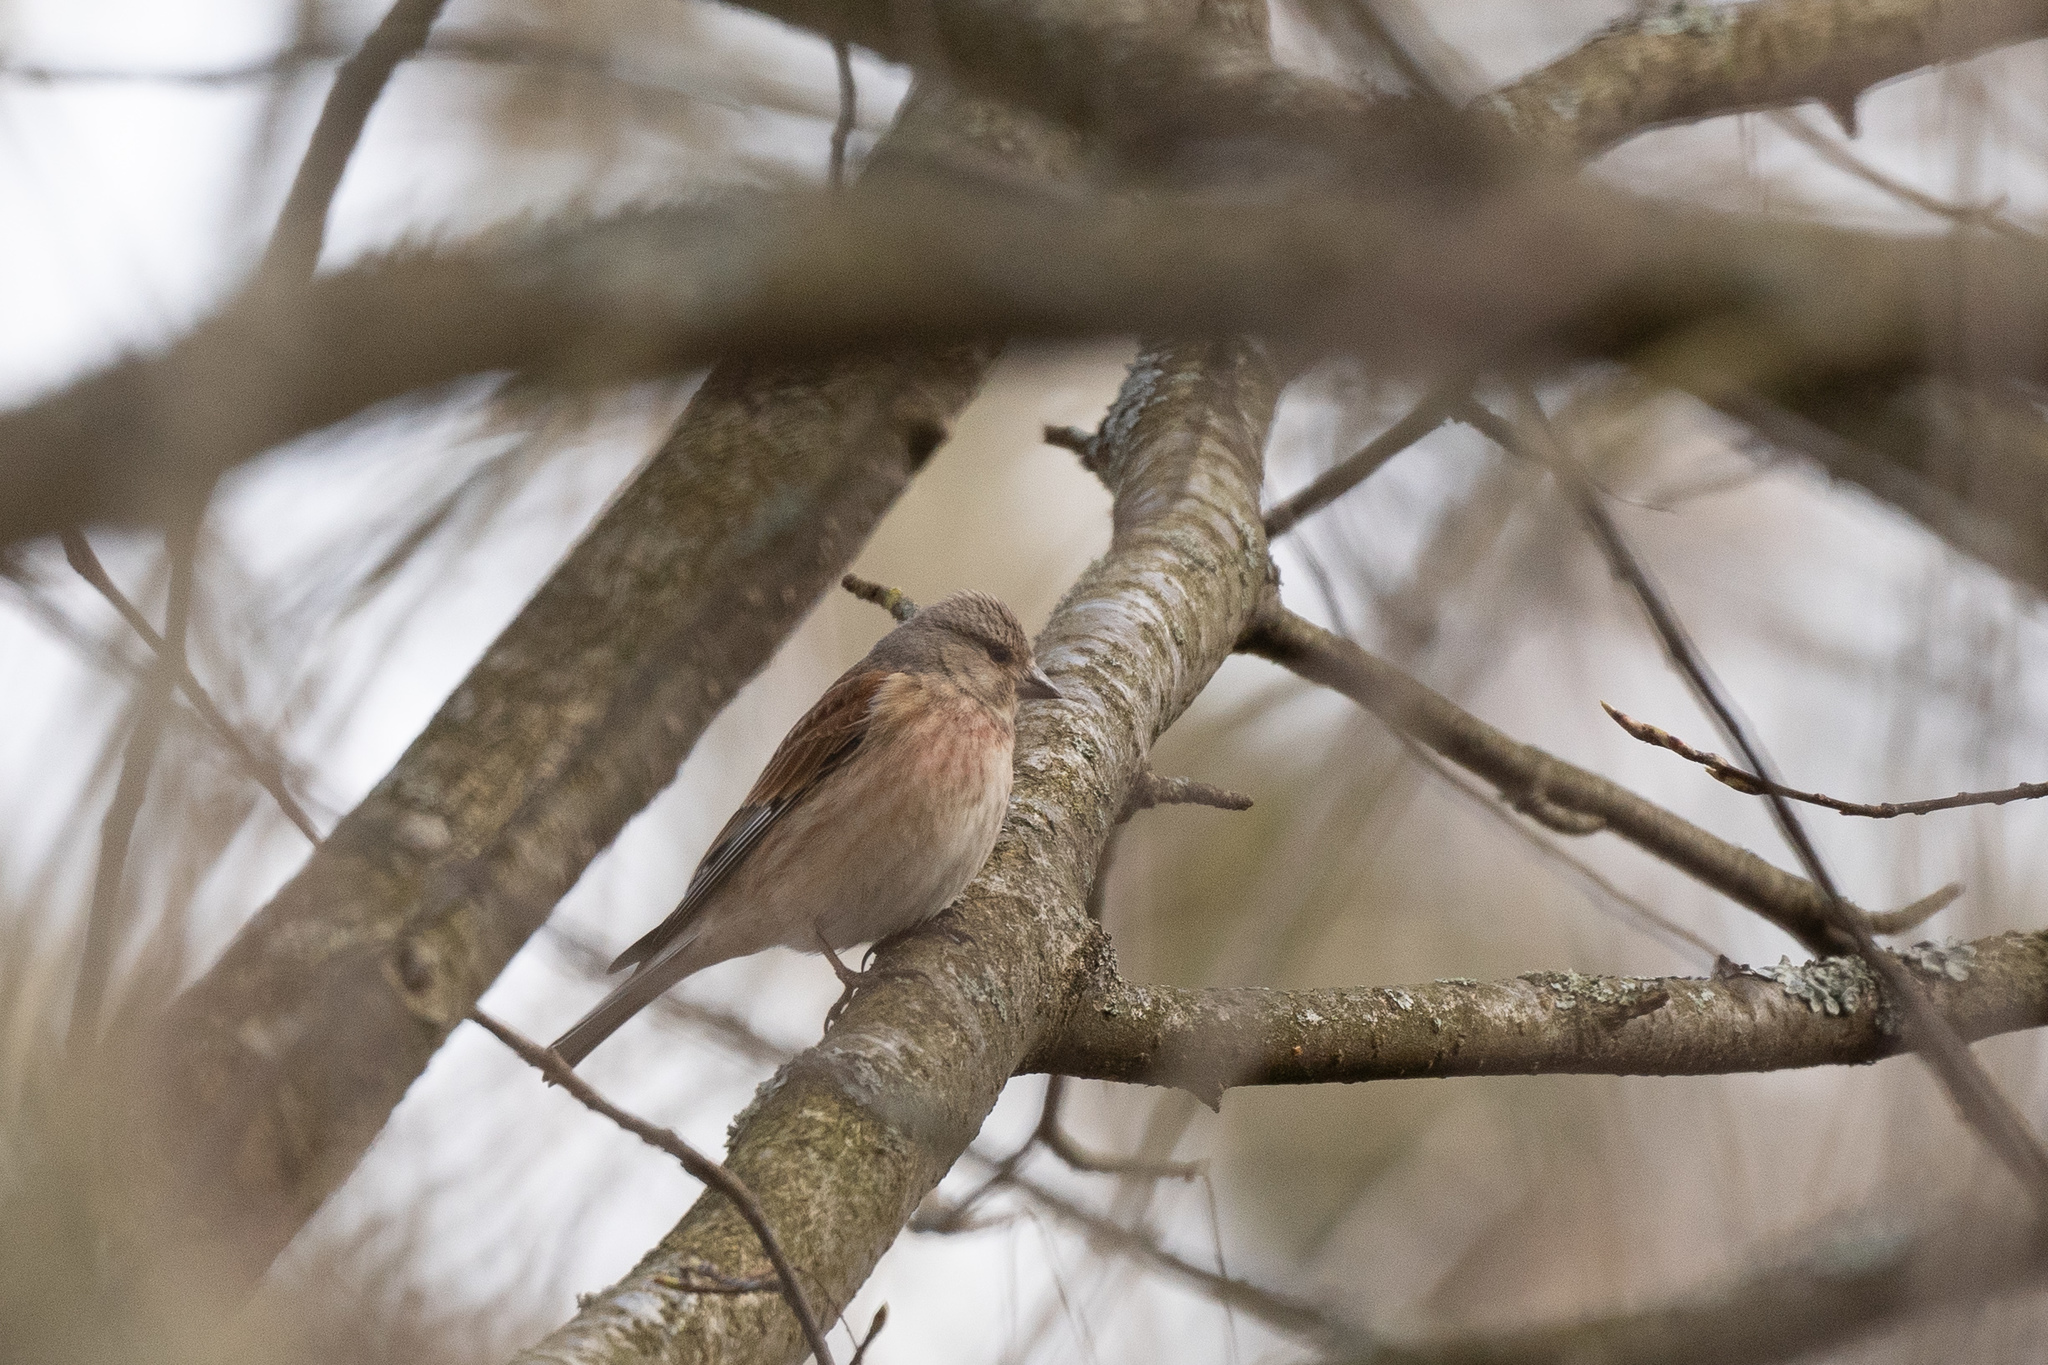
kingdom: Animalia
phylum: Chordata
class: Aves
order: Passeriformes
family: Fringillidae
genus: Linaria
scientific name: Linaria cannabina
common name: Common linnet
